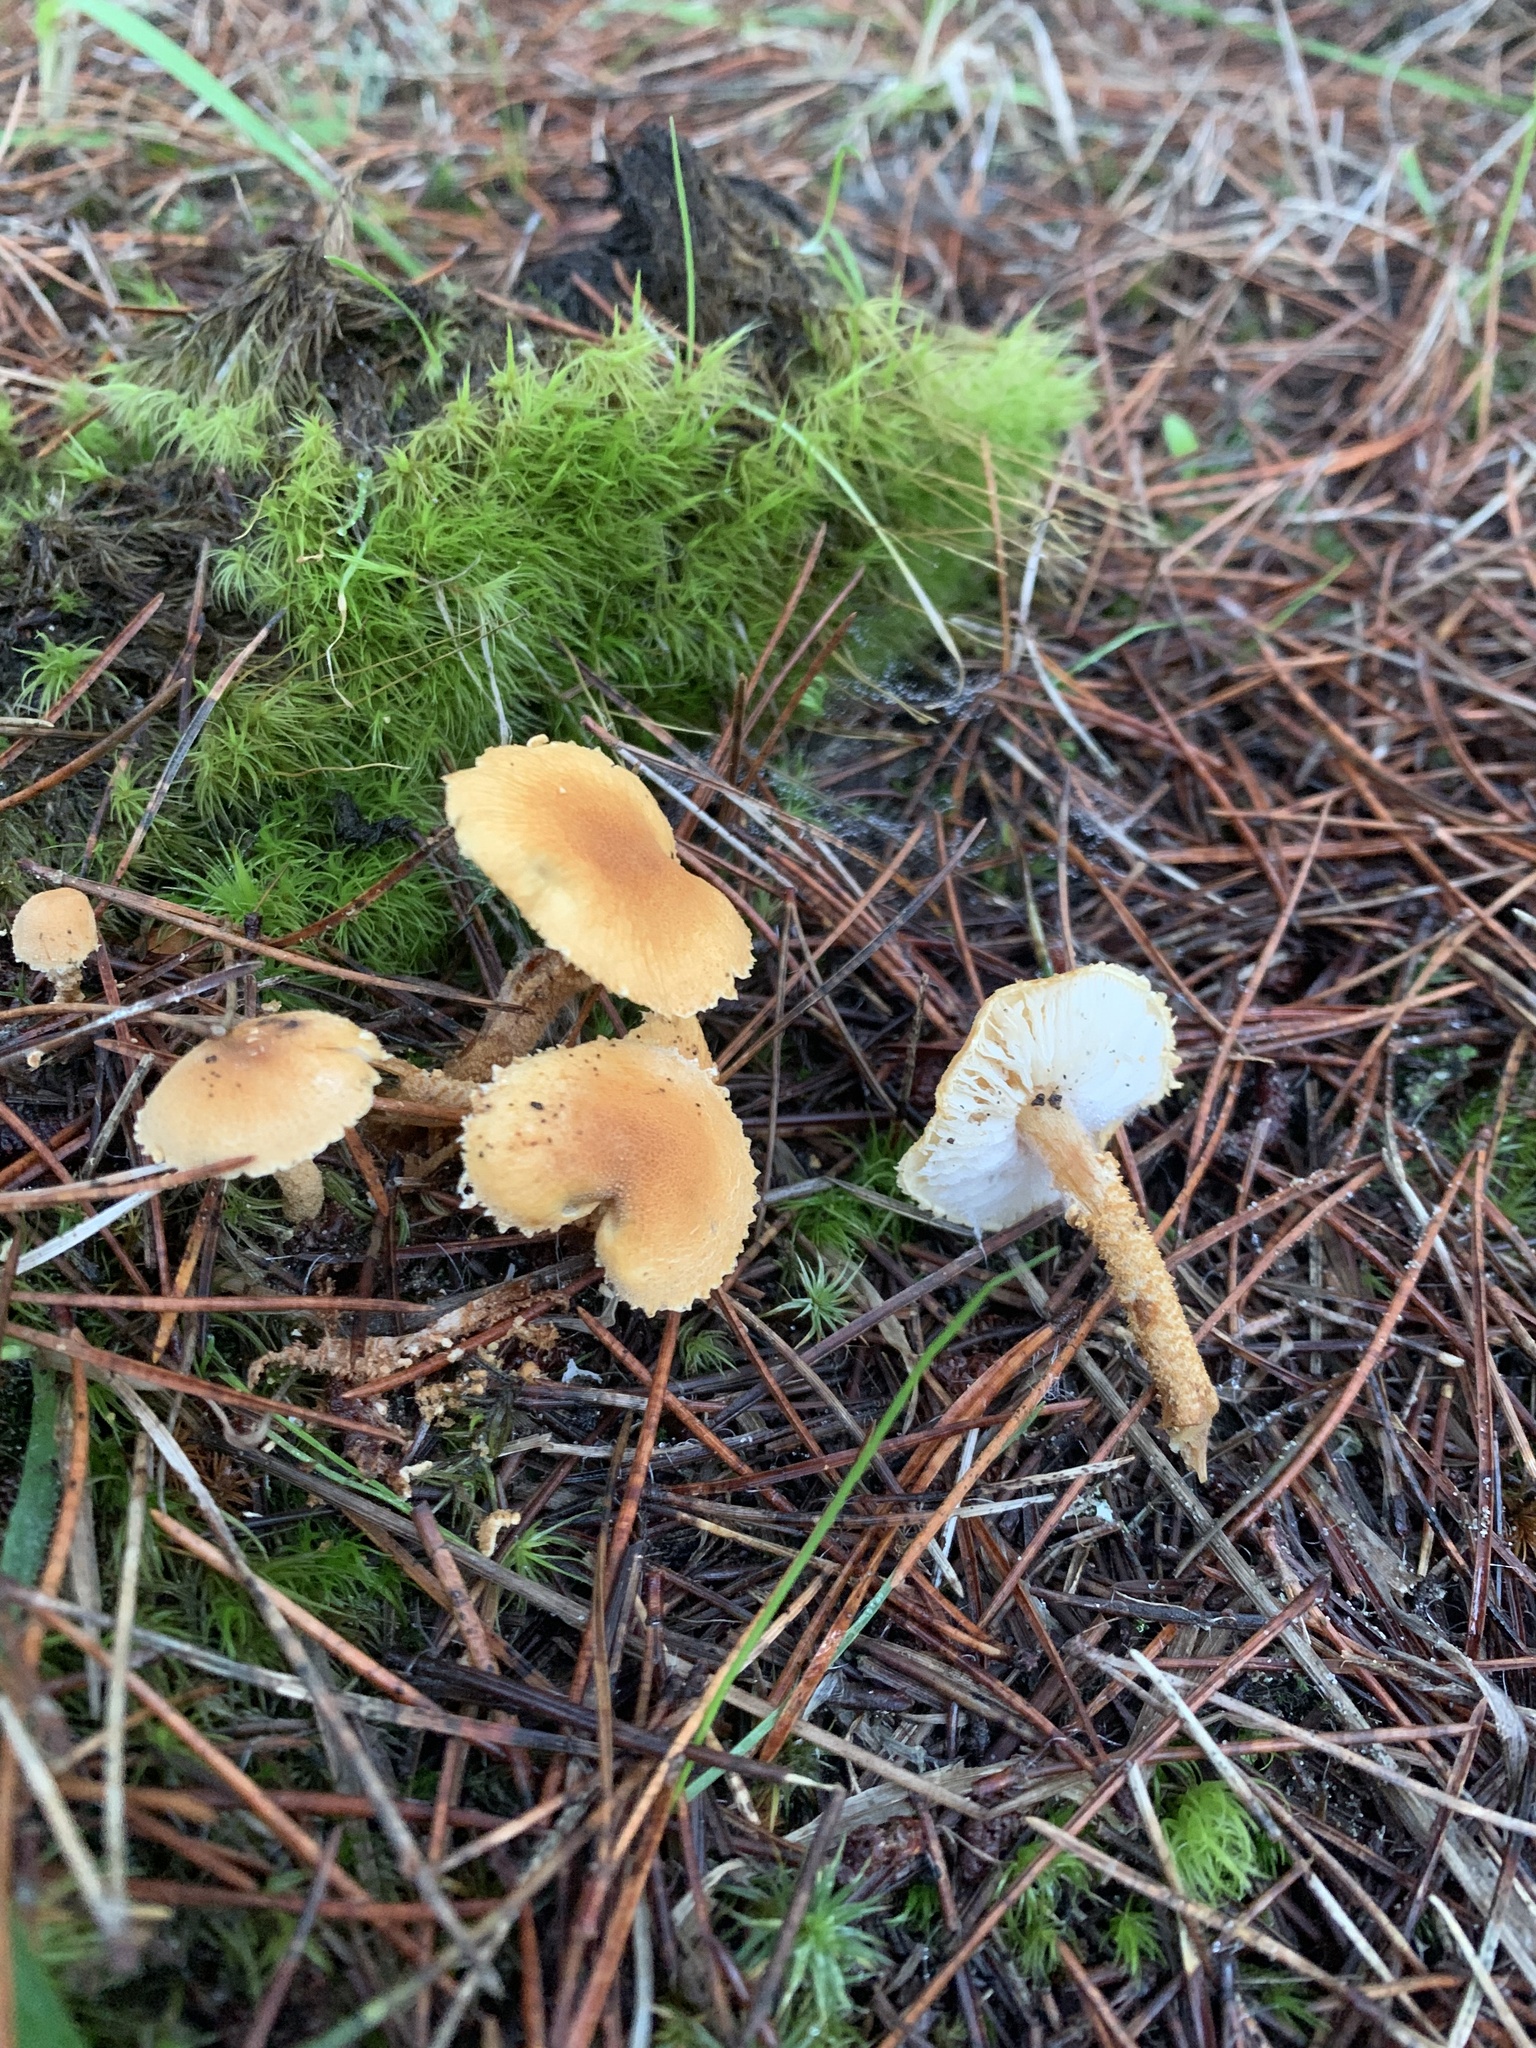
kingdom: Fungi
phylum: Basidiomycota
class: Agaricomycetes
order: Agaricales
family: Tricholomataceae
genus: Cystoderma
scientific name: Cystoderma amianthinum
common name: Earthy powdercap
